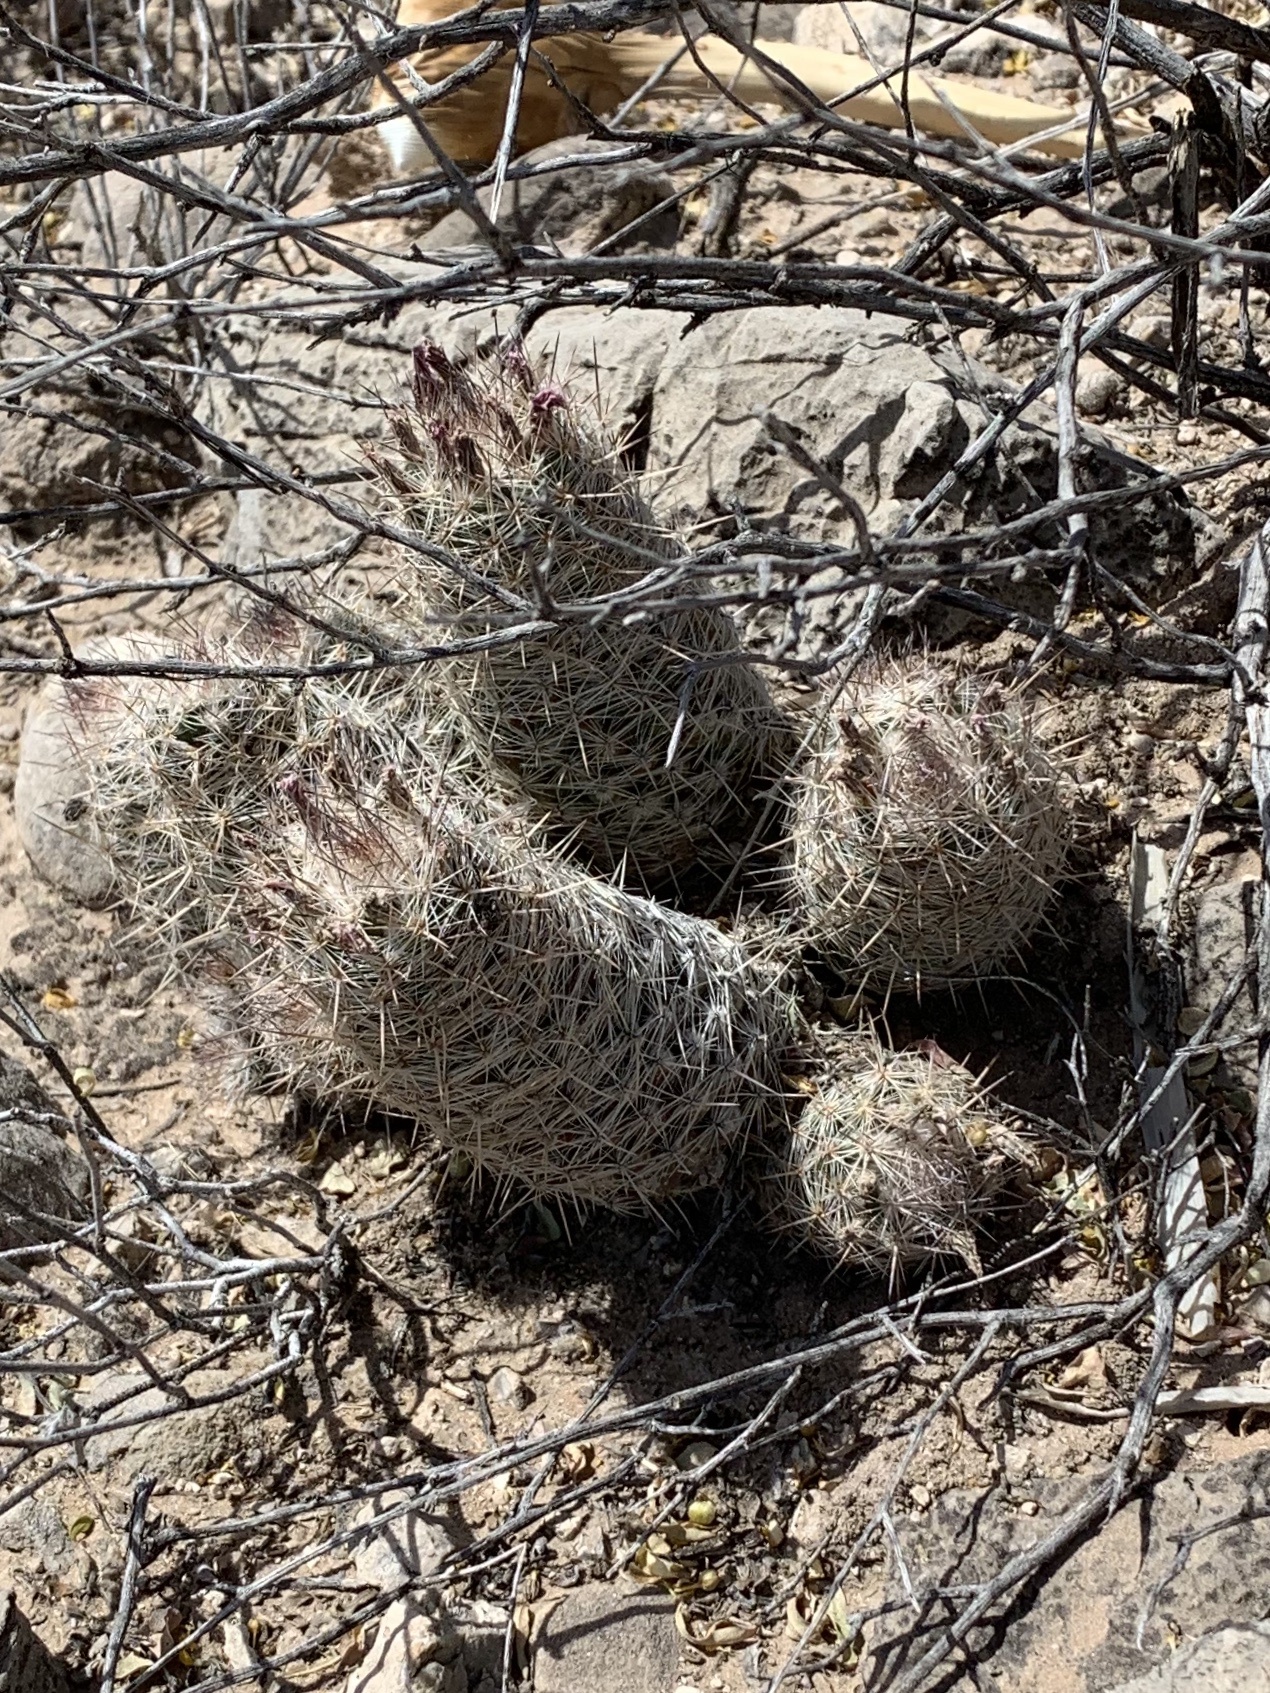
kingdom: Plantae
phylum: Tracheophyta
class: Magnoliopsida
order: Caryophyllales
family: Cactaceae
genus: Pelecyphora
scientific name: Pelecyphora tuberculosa
